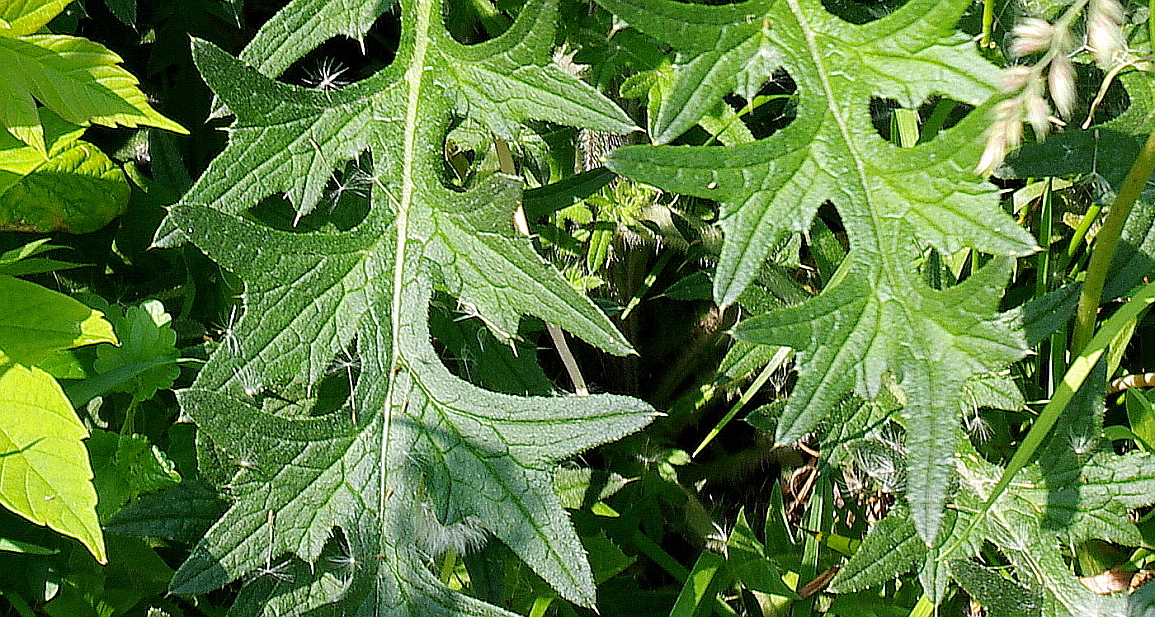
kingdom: Plantae
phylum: Tracheophyta
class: Magnoliopsida
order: Asterales
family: Asteraceae
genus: Cirsium
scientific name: Cirsium vulgare
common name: Bull thistle
